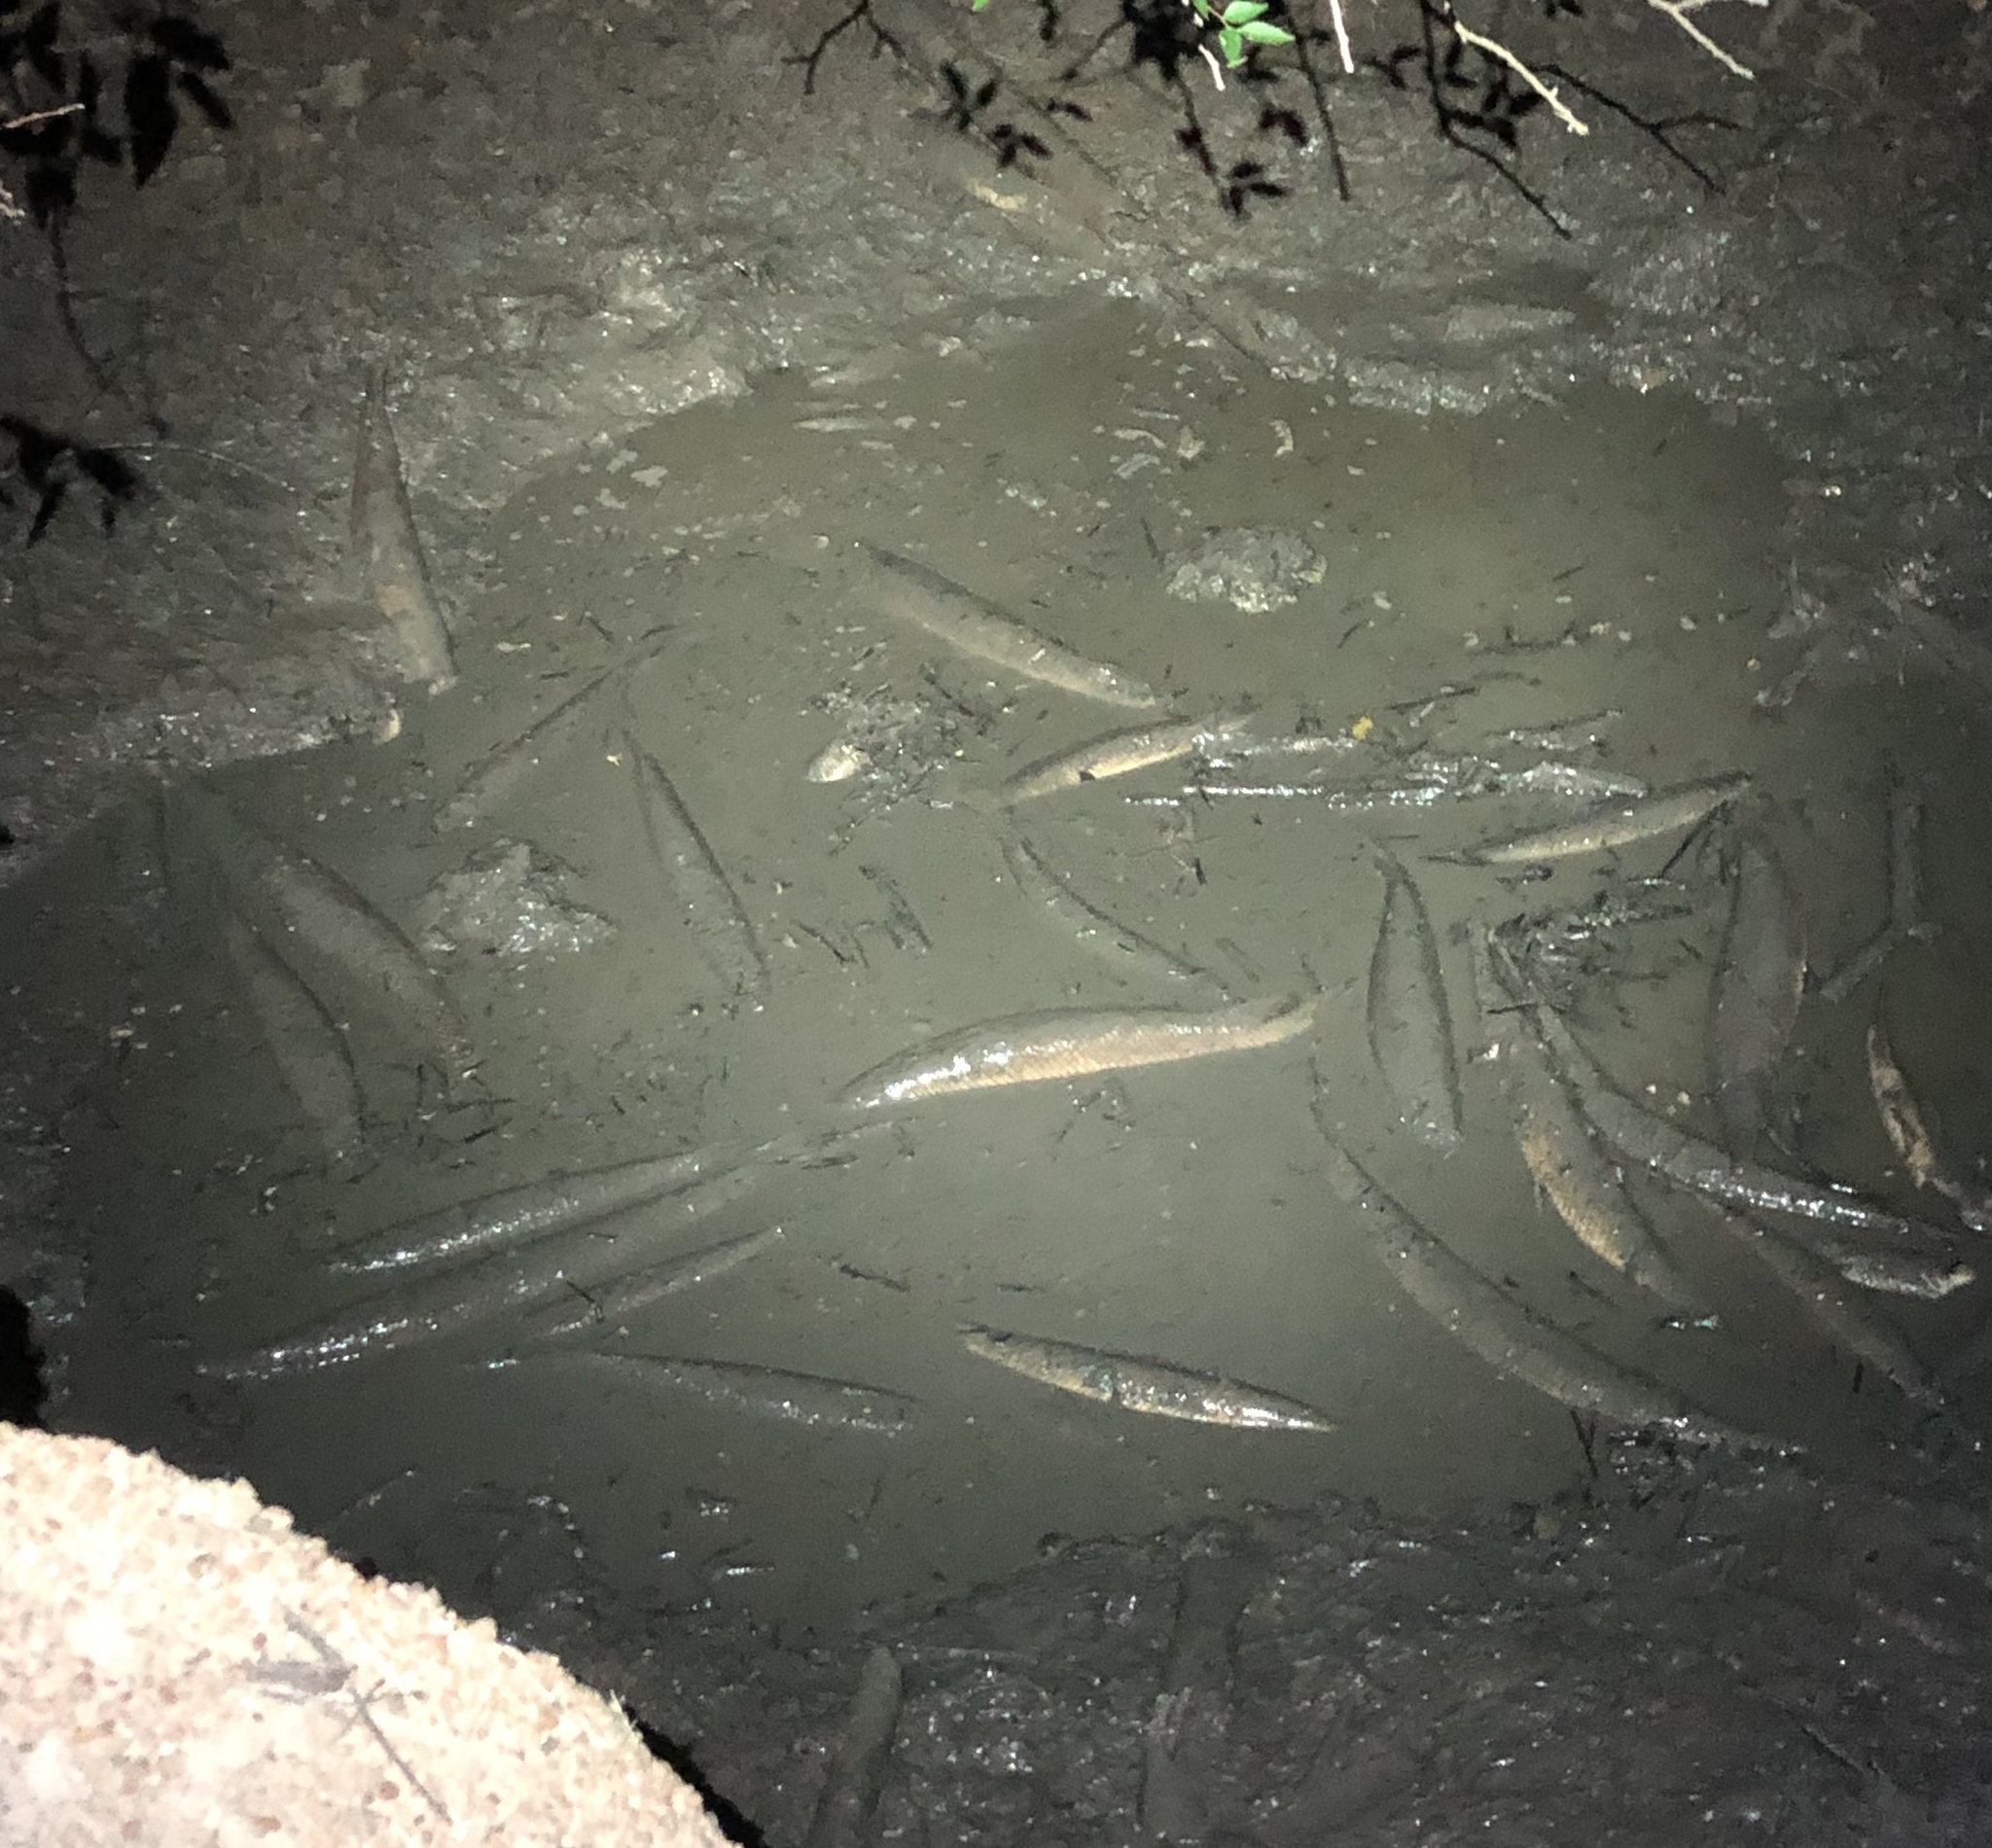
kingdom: Animalia
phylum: Chordata
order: Lepisosteiformes
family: Lepisosteidae
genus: Lepisosteus
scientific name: Lepisosteus oculatus
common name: Spotted gar
